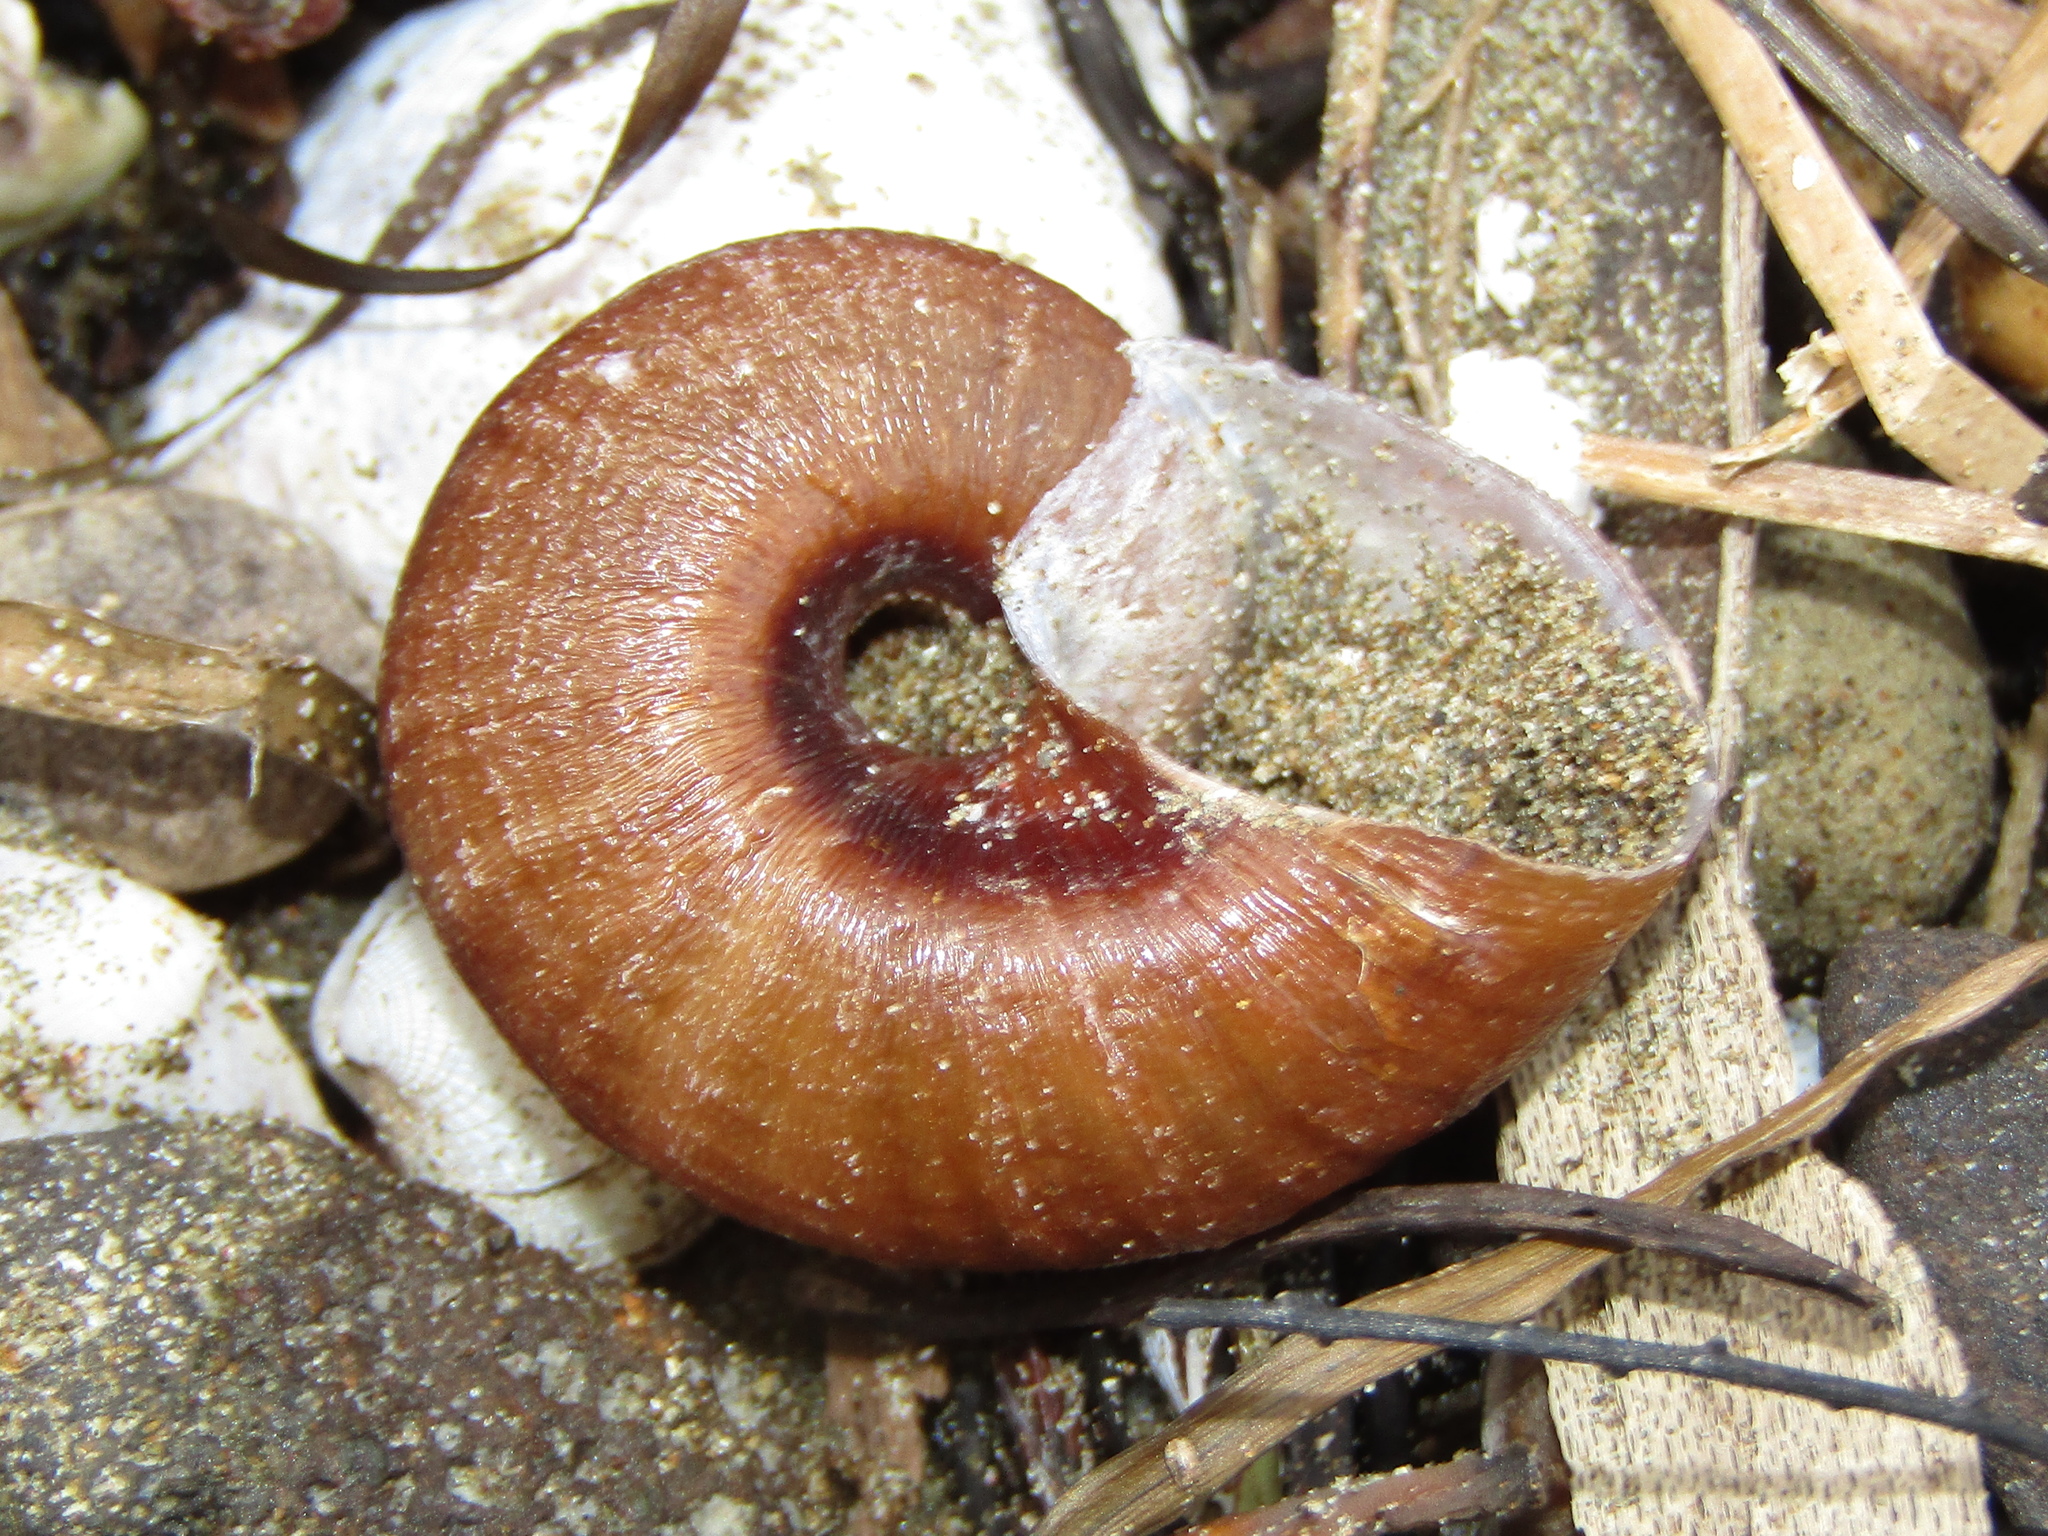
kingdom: Animalia
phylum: Mollusca
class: Gastropoda
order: Stylommatophora
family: Rhytididae
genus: Rhytida
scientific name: Rhytida greenwoodi
